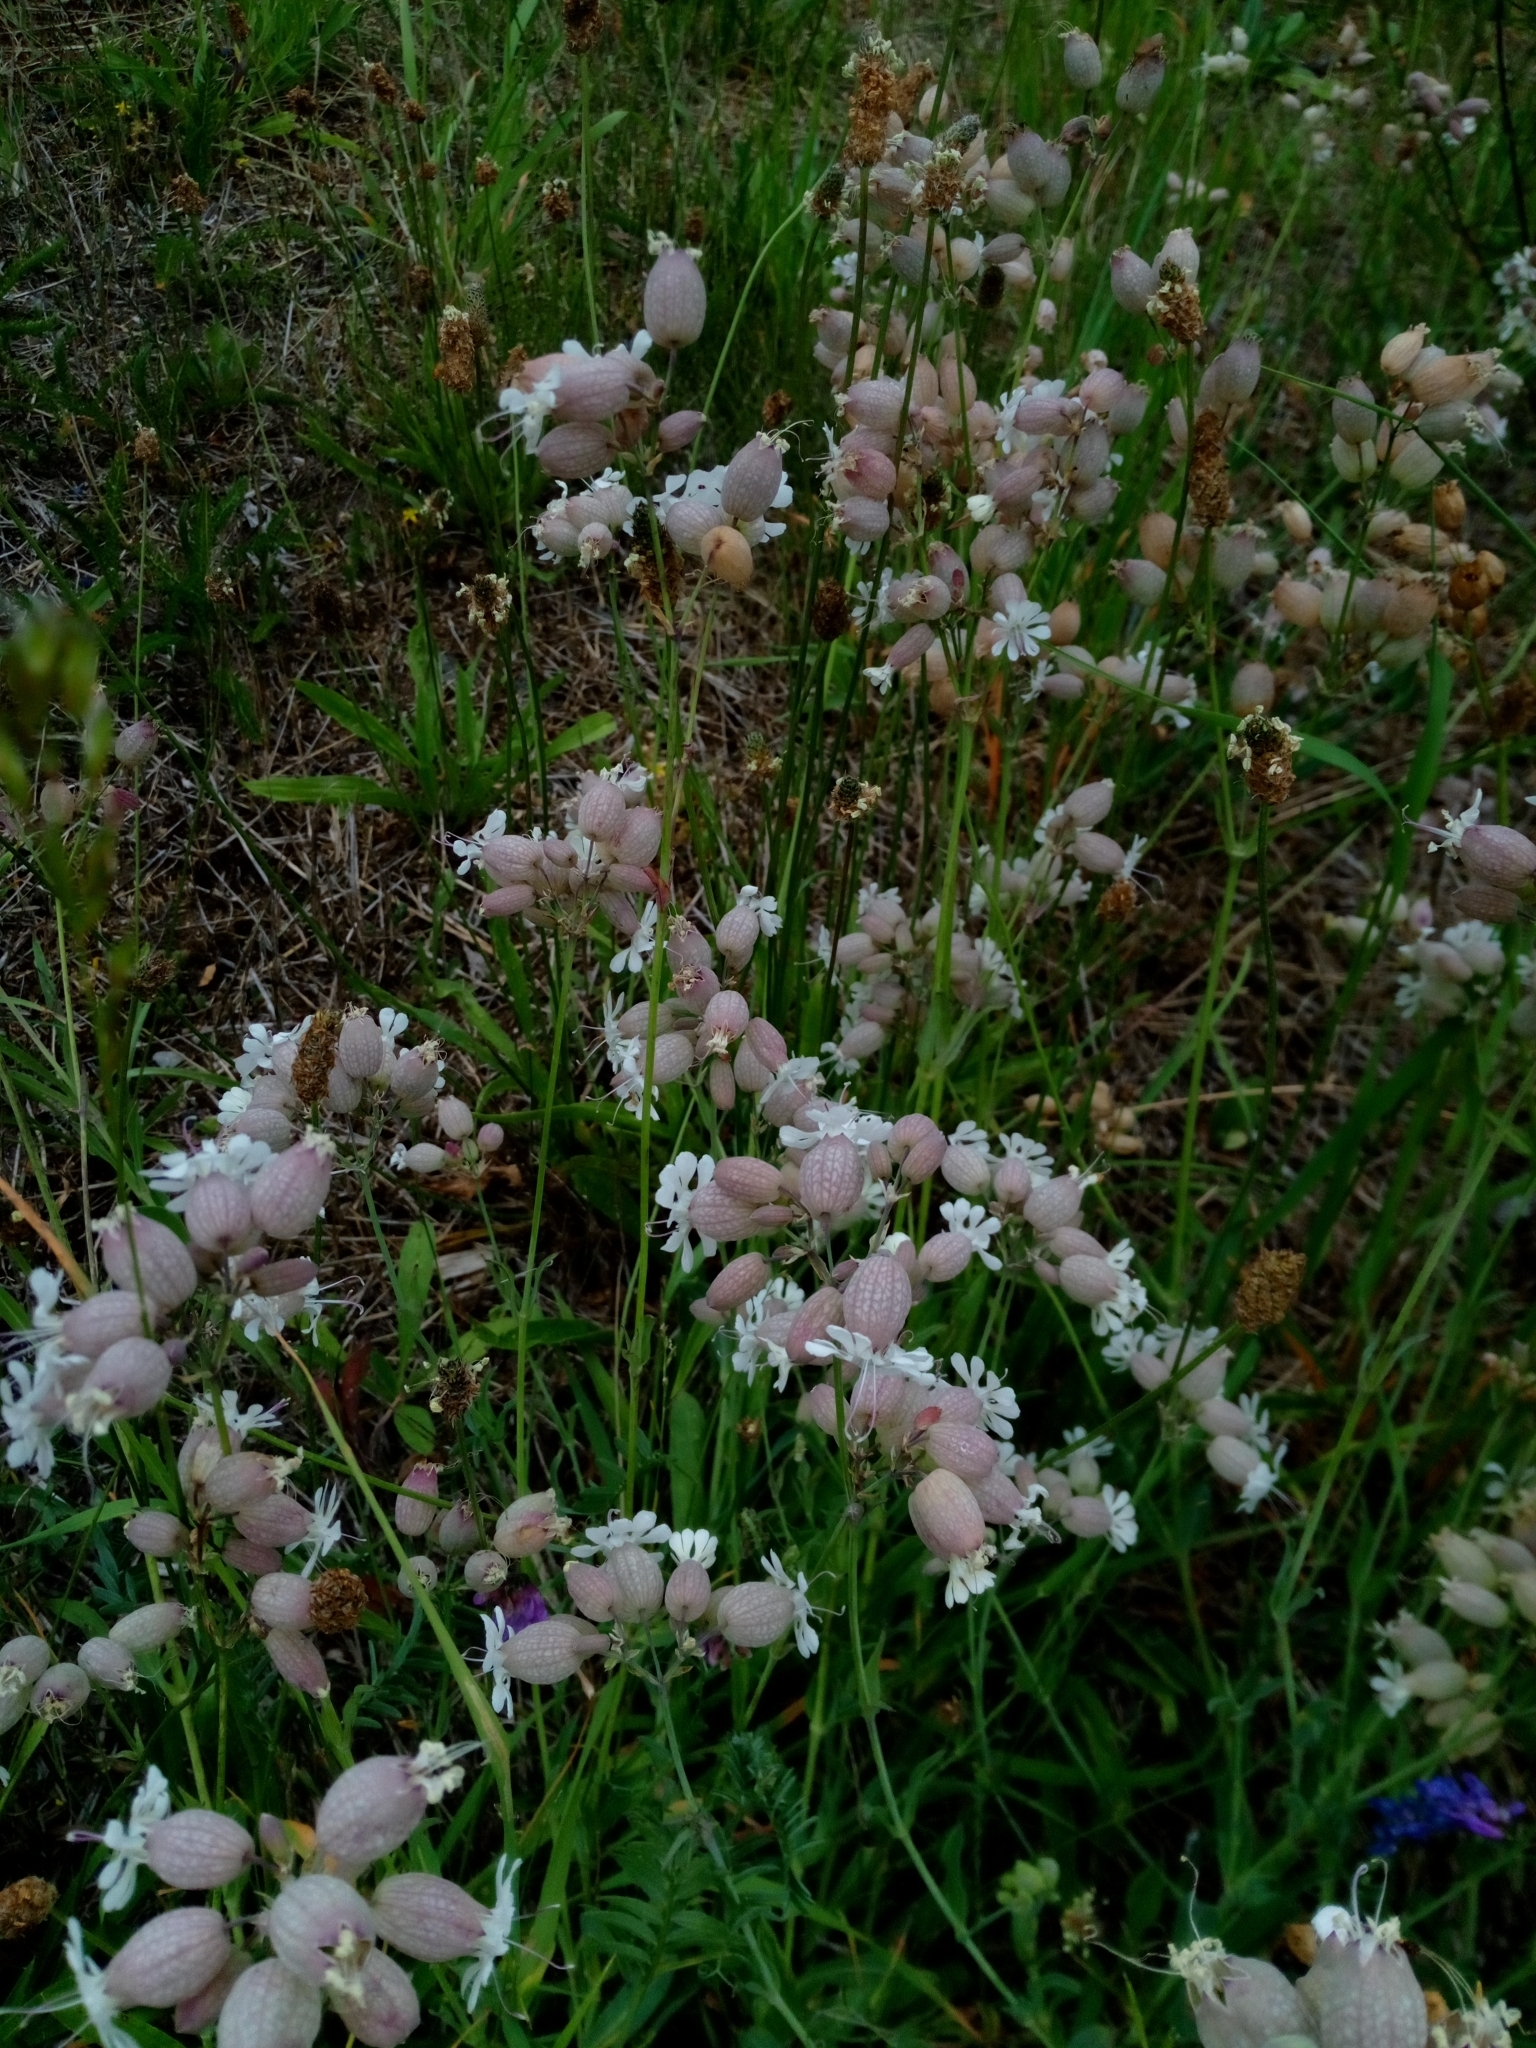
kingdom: Plantae
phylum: Tracheophyta
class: Magnoliopsida
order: Caryophyllales
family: Caryophyllaceae
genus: Silene
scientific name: Silene vulgaris
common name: Bladder campion
